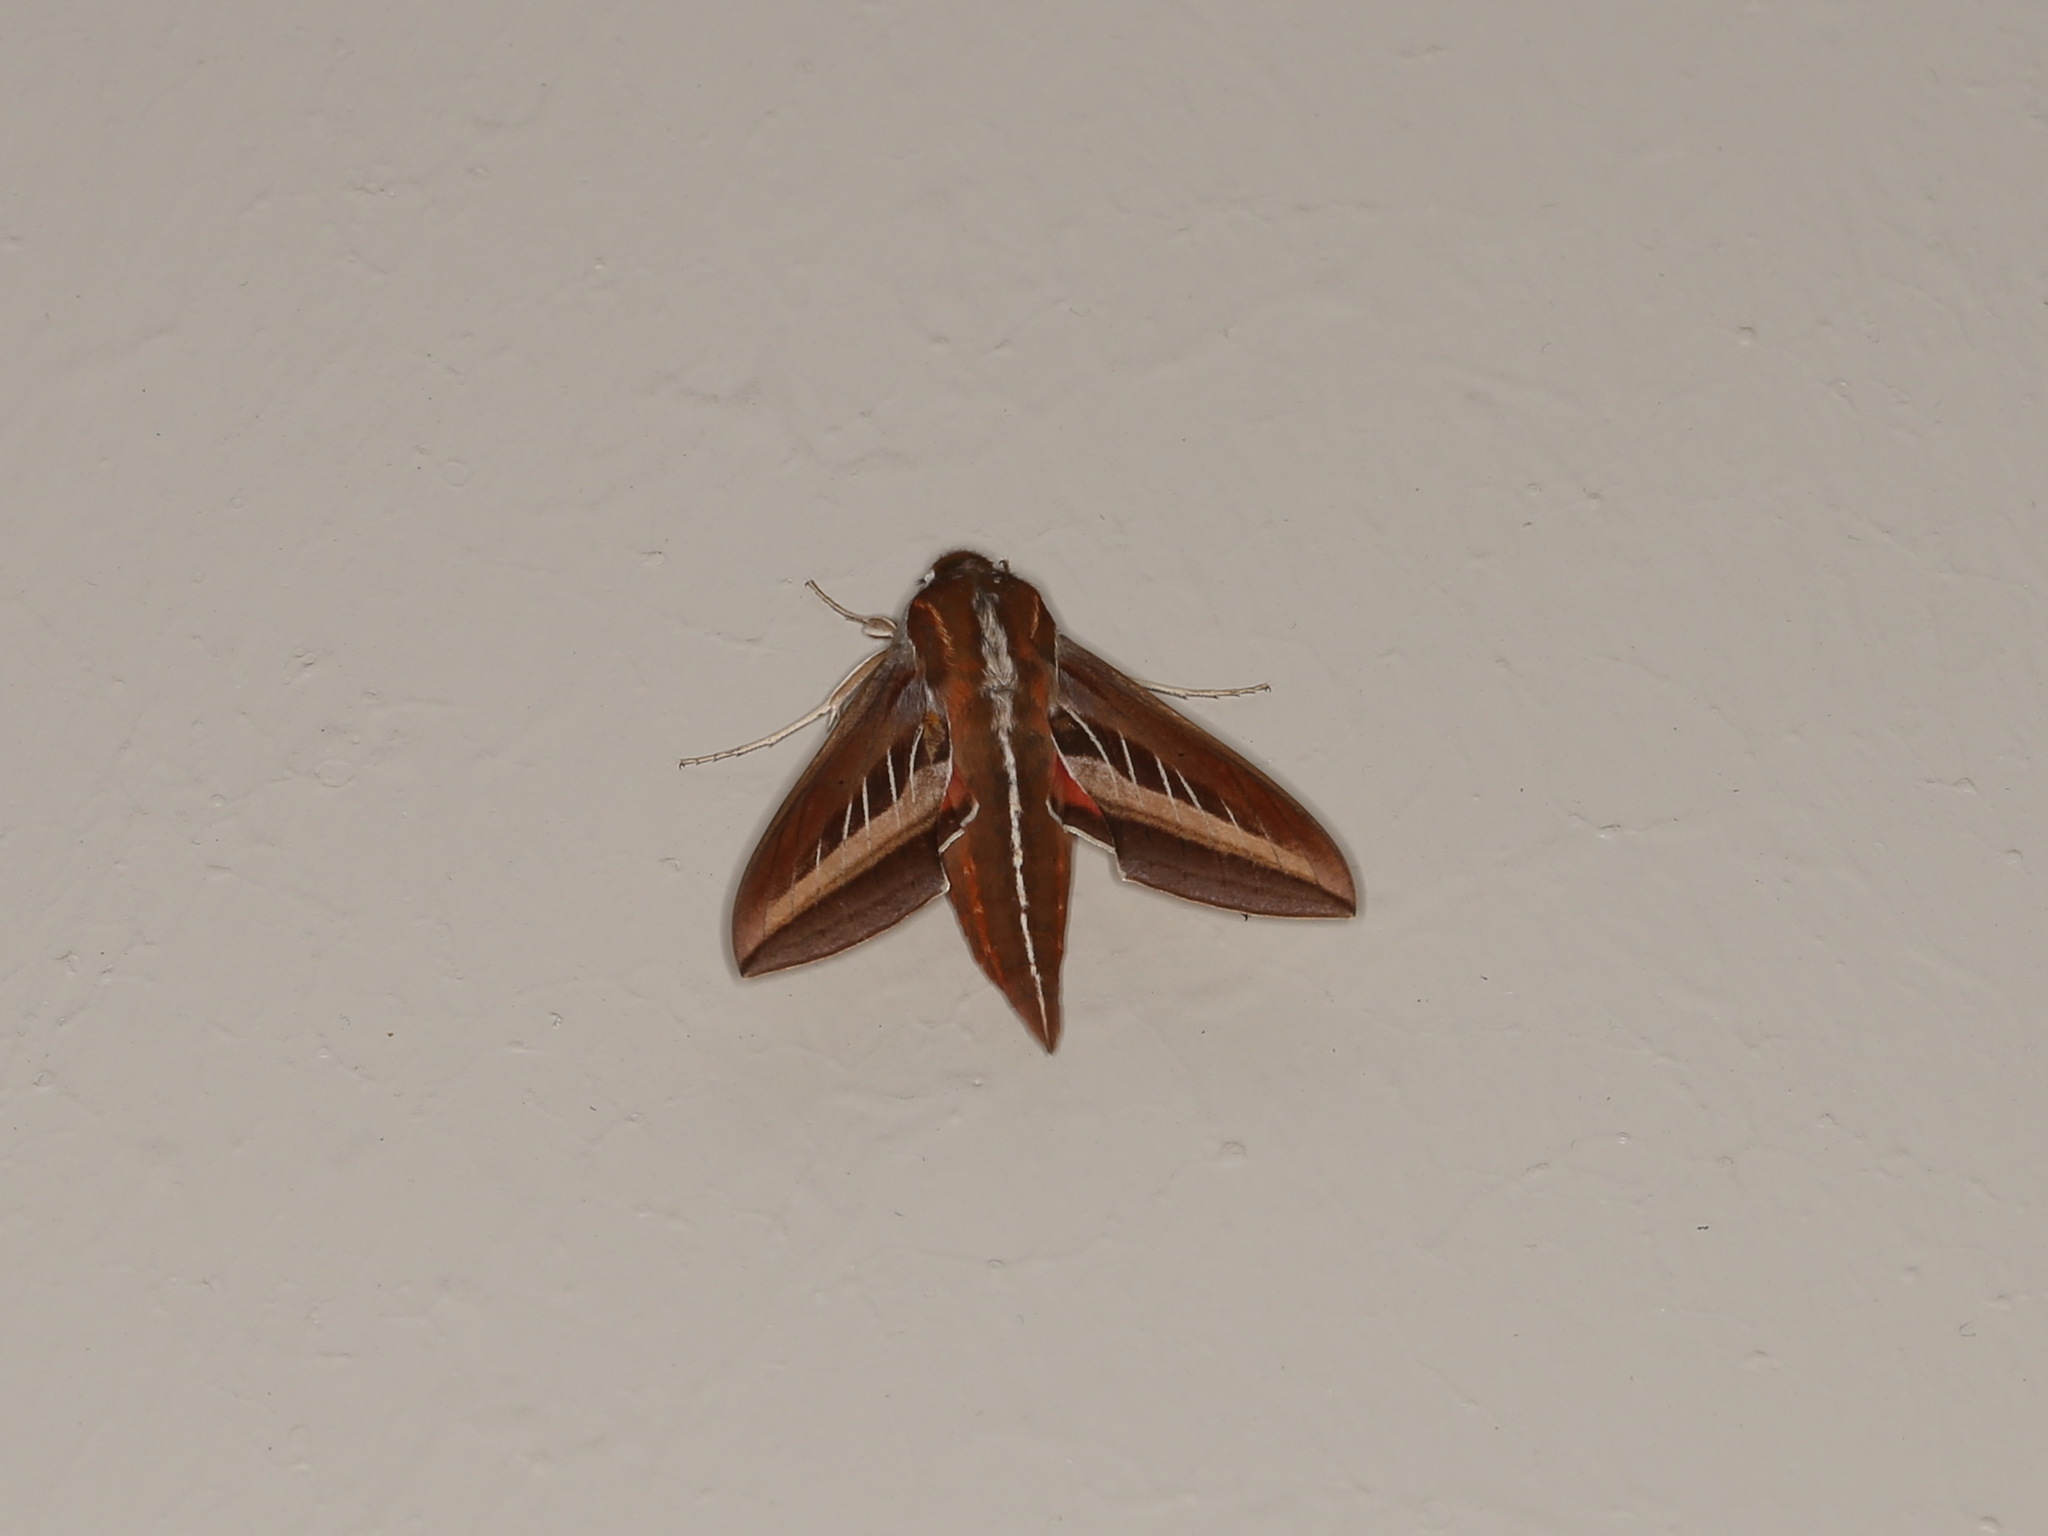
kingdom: Animalia
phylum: Arthropoda
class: Insecta
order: Lepidoptera
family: Sphingidae
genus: Basiothia
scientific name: Basiothia schenki
